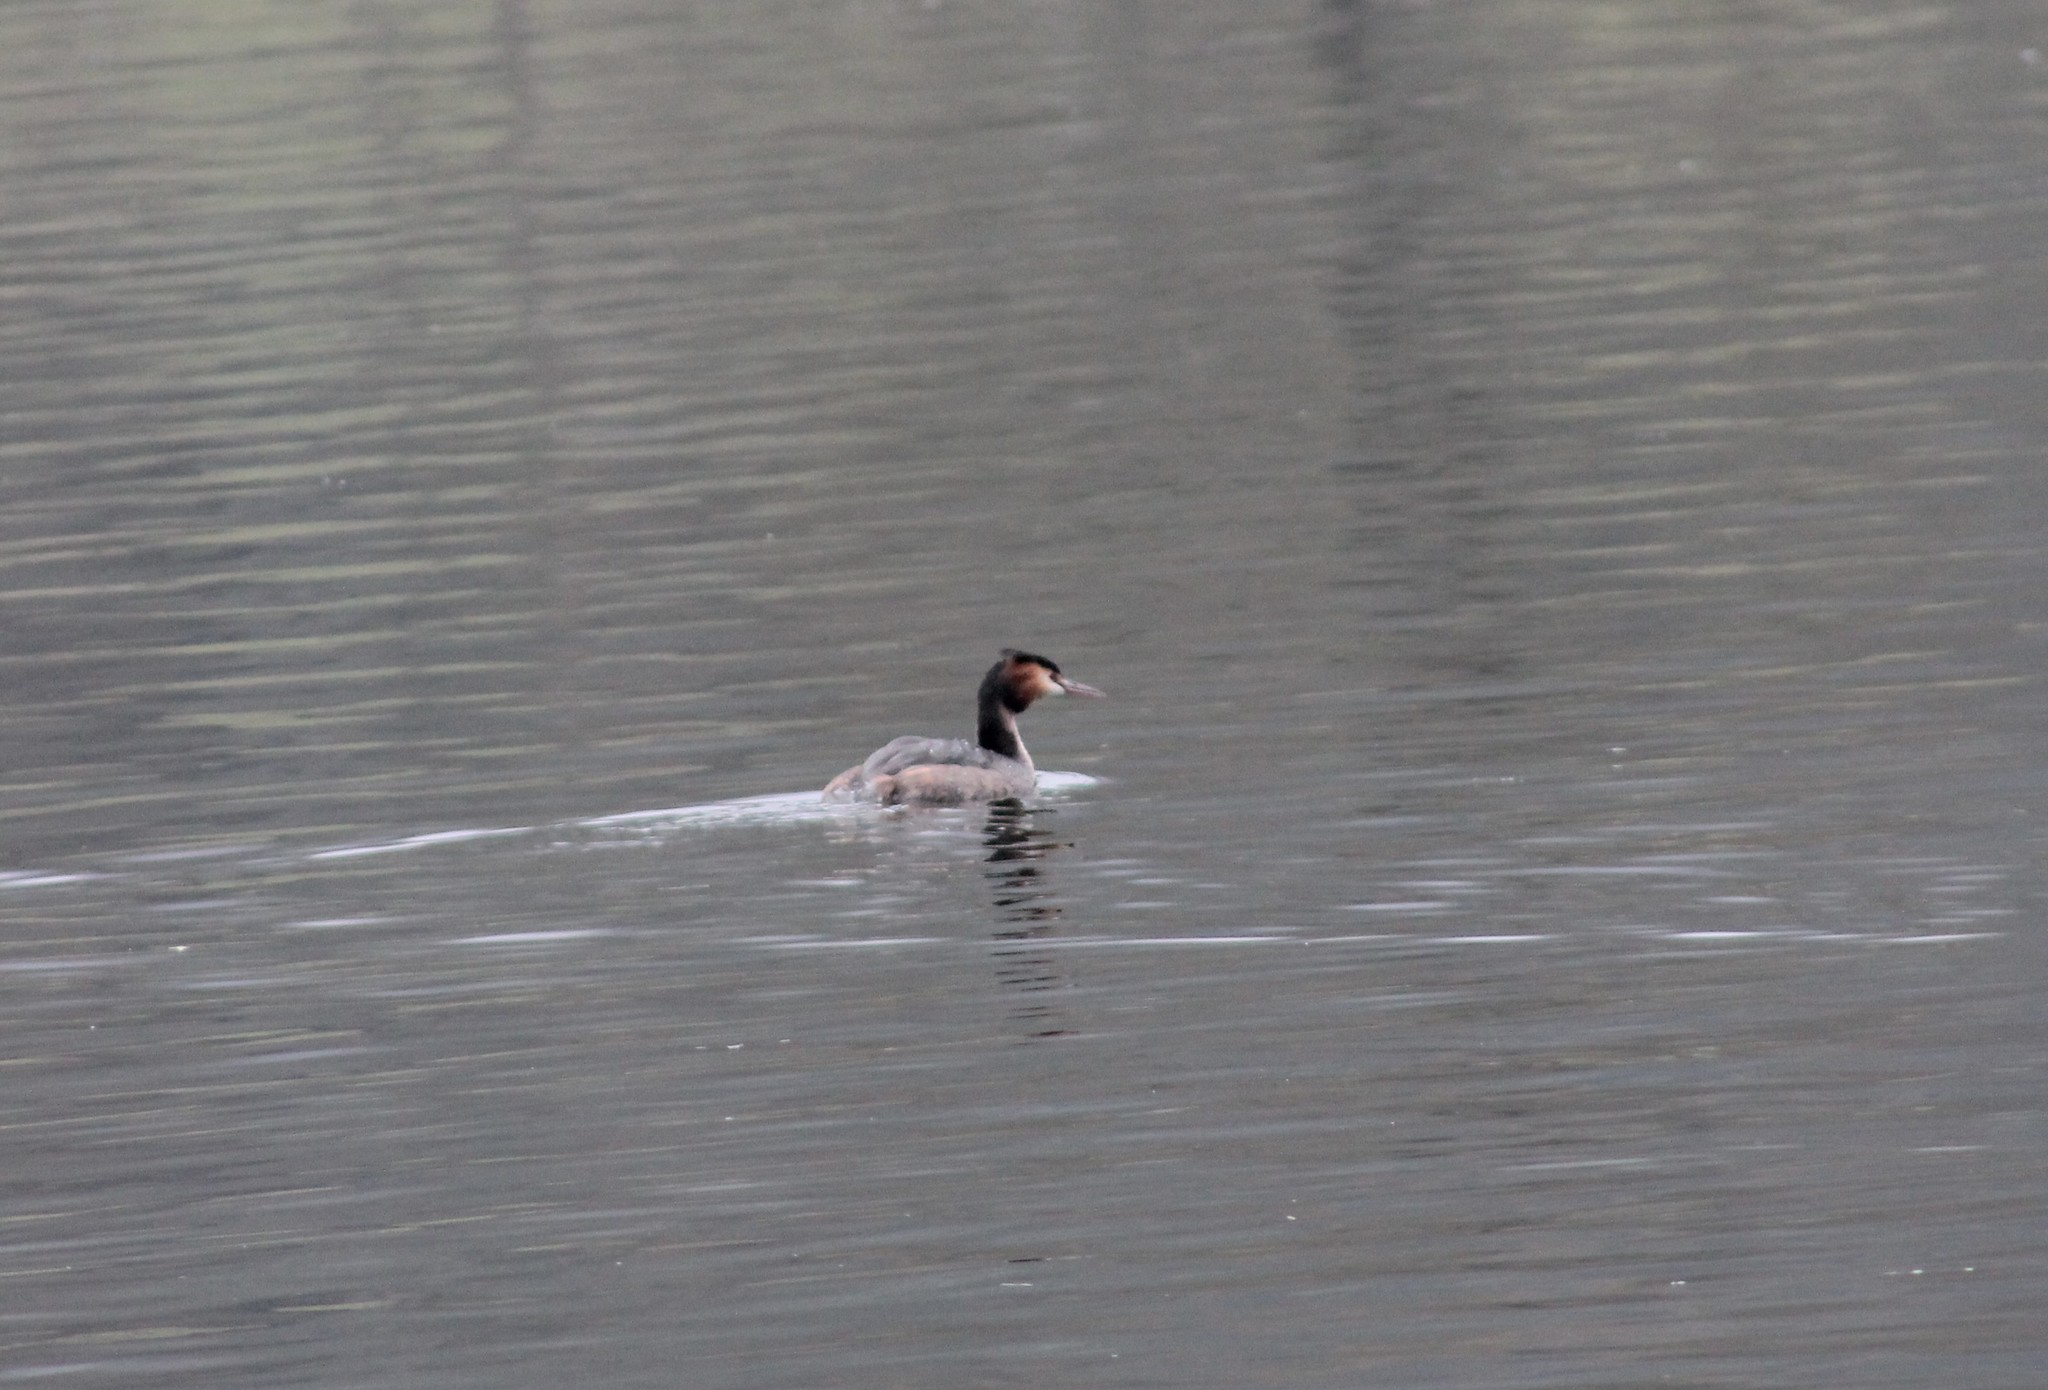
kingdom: Animalia
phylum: Chordata
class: Aves
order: Podicipediformes
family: Podicipedidae
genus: Podiceps
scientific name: Podiceps cristatus
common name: Great crested grebe
